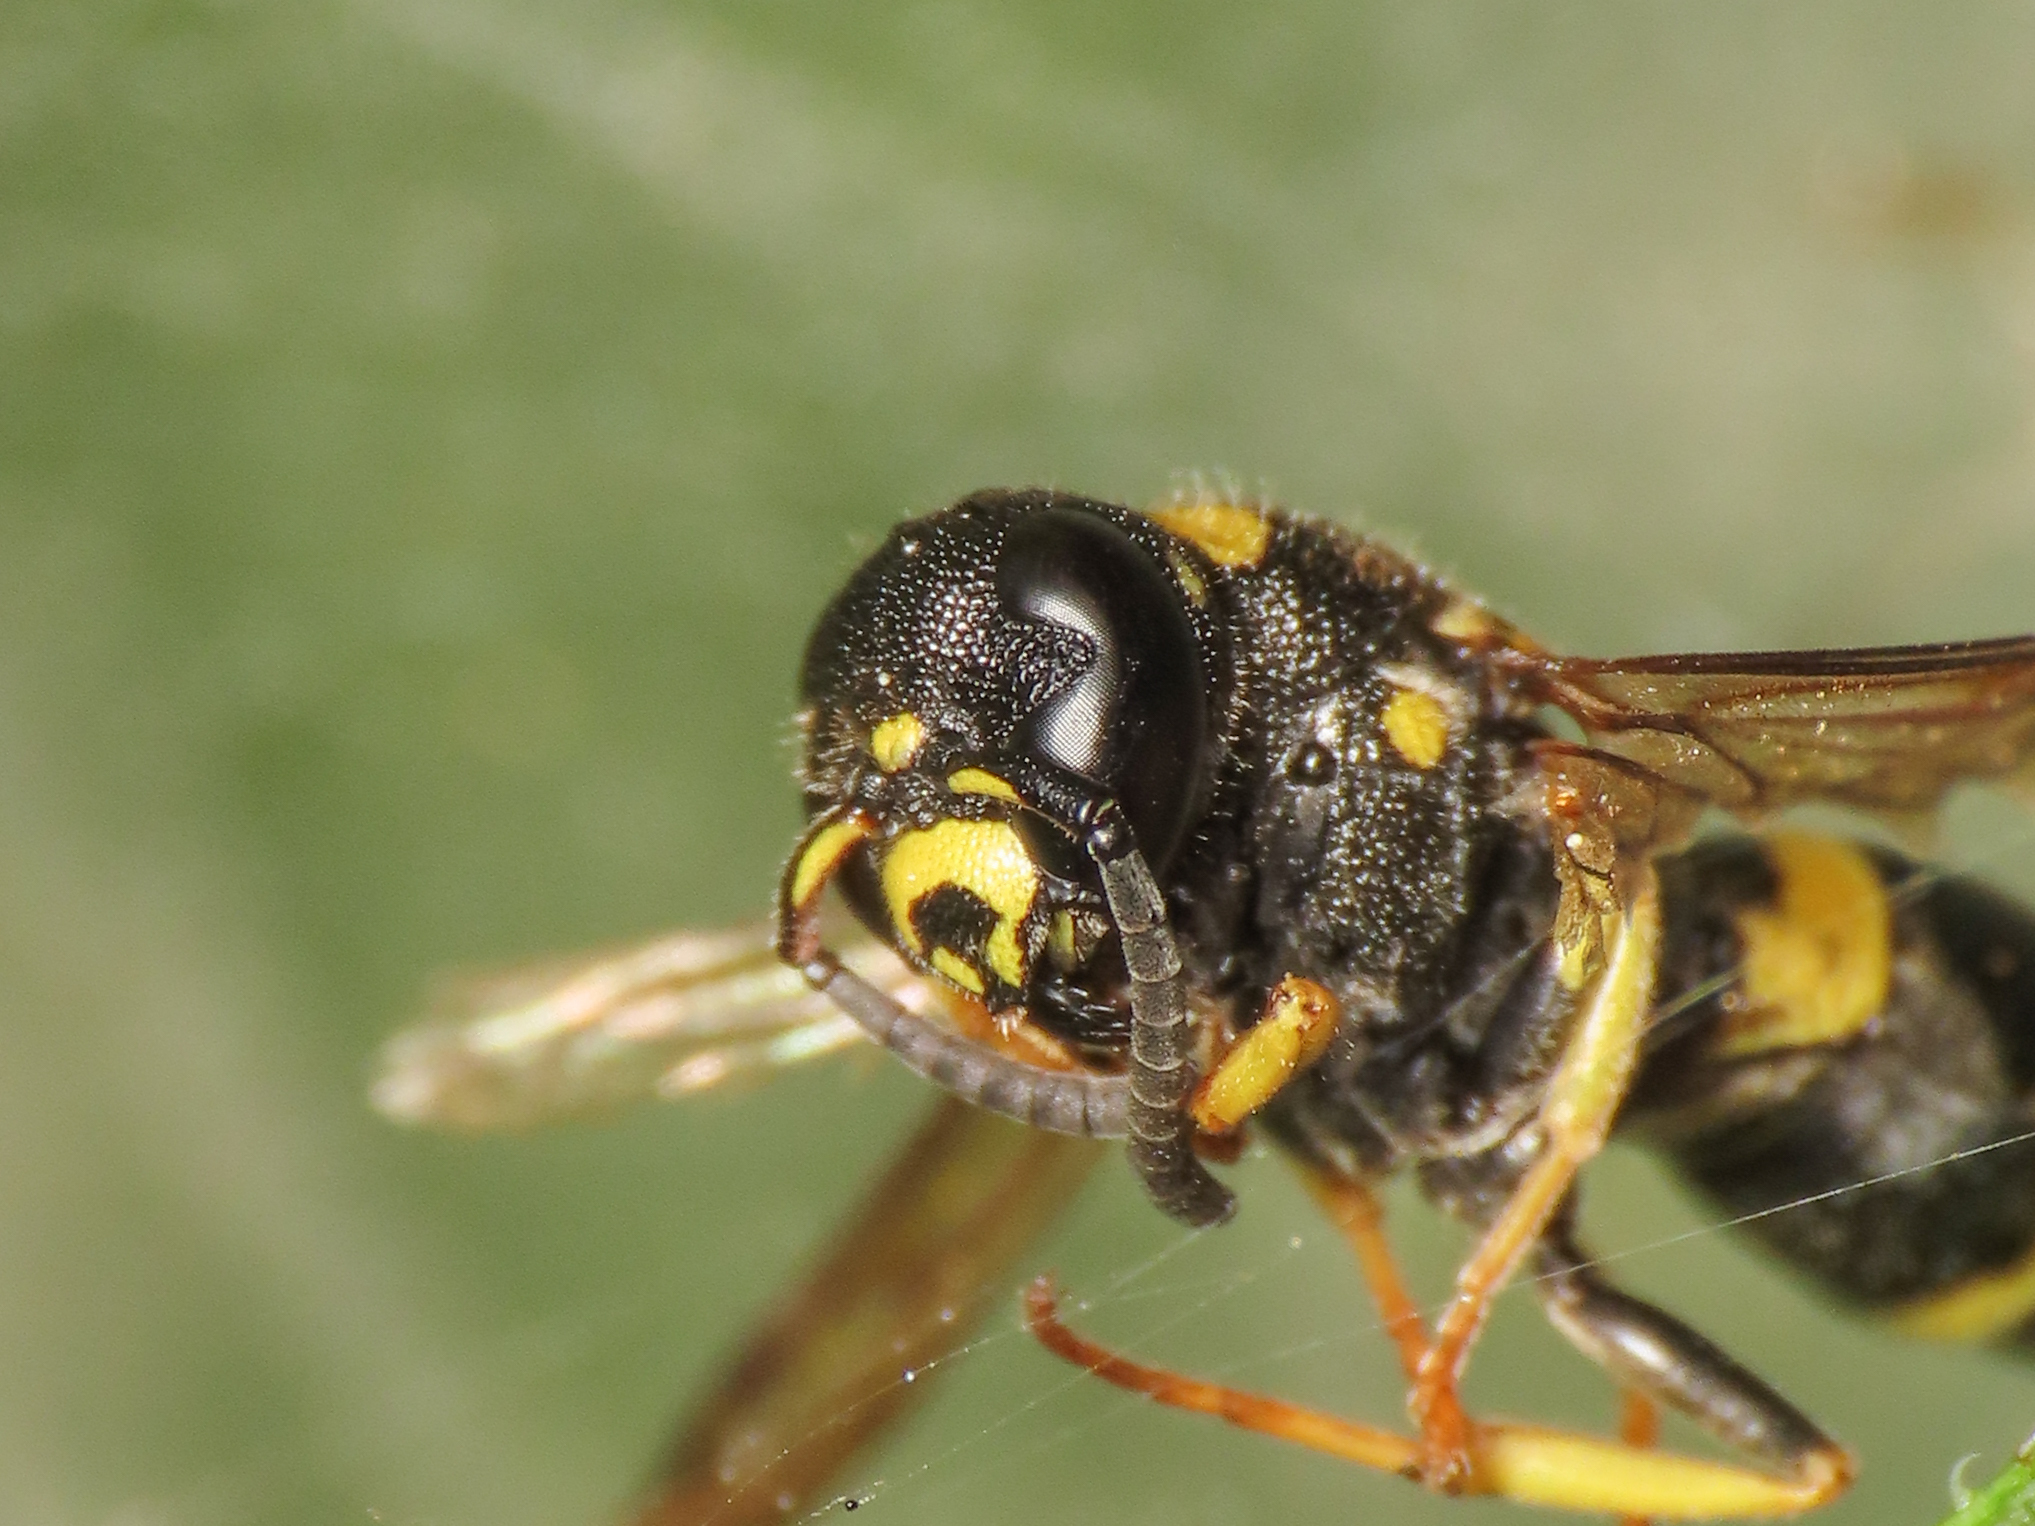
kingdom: Animalia
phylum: Arthropoda
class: Insecta
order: Hymenoptera
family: Eumenidae
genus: Allodynerus
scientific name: Allodynerus rossii
